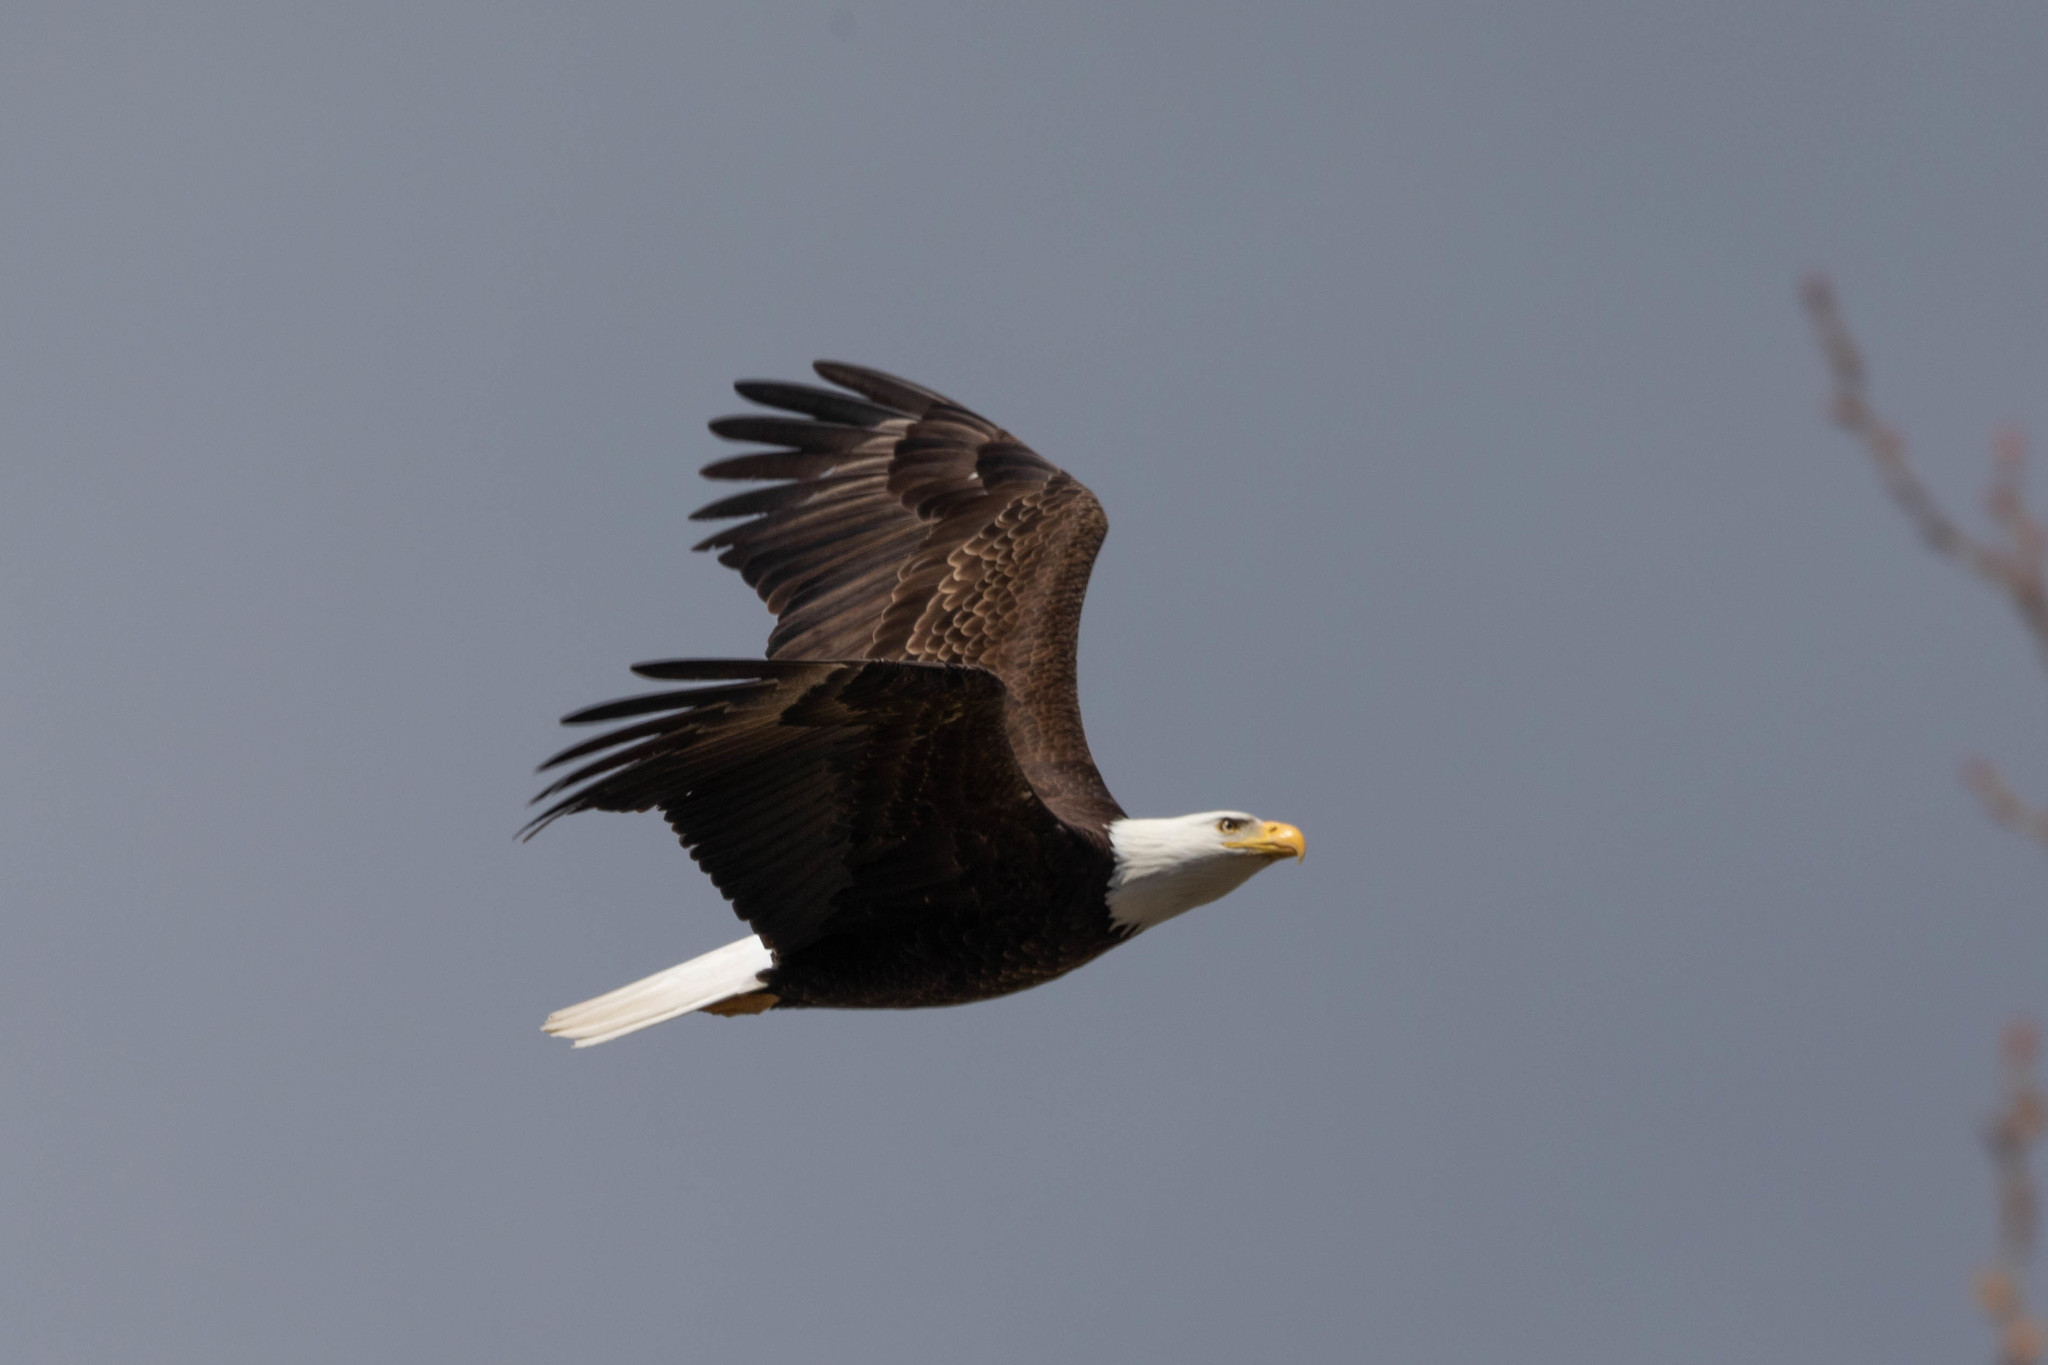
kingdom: Animalia
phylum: Chordata
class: Aves
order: Accipitriformes
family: Accipitridae
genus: Haliaeetus
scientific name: Haliaeetus leucocephalus
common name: Bald eagle
